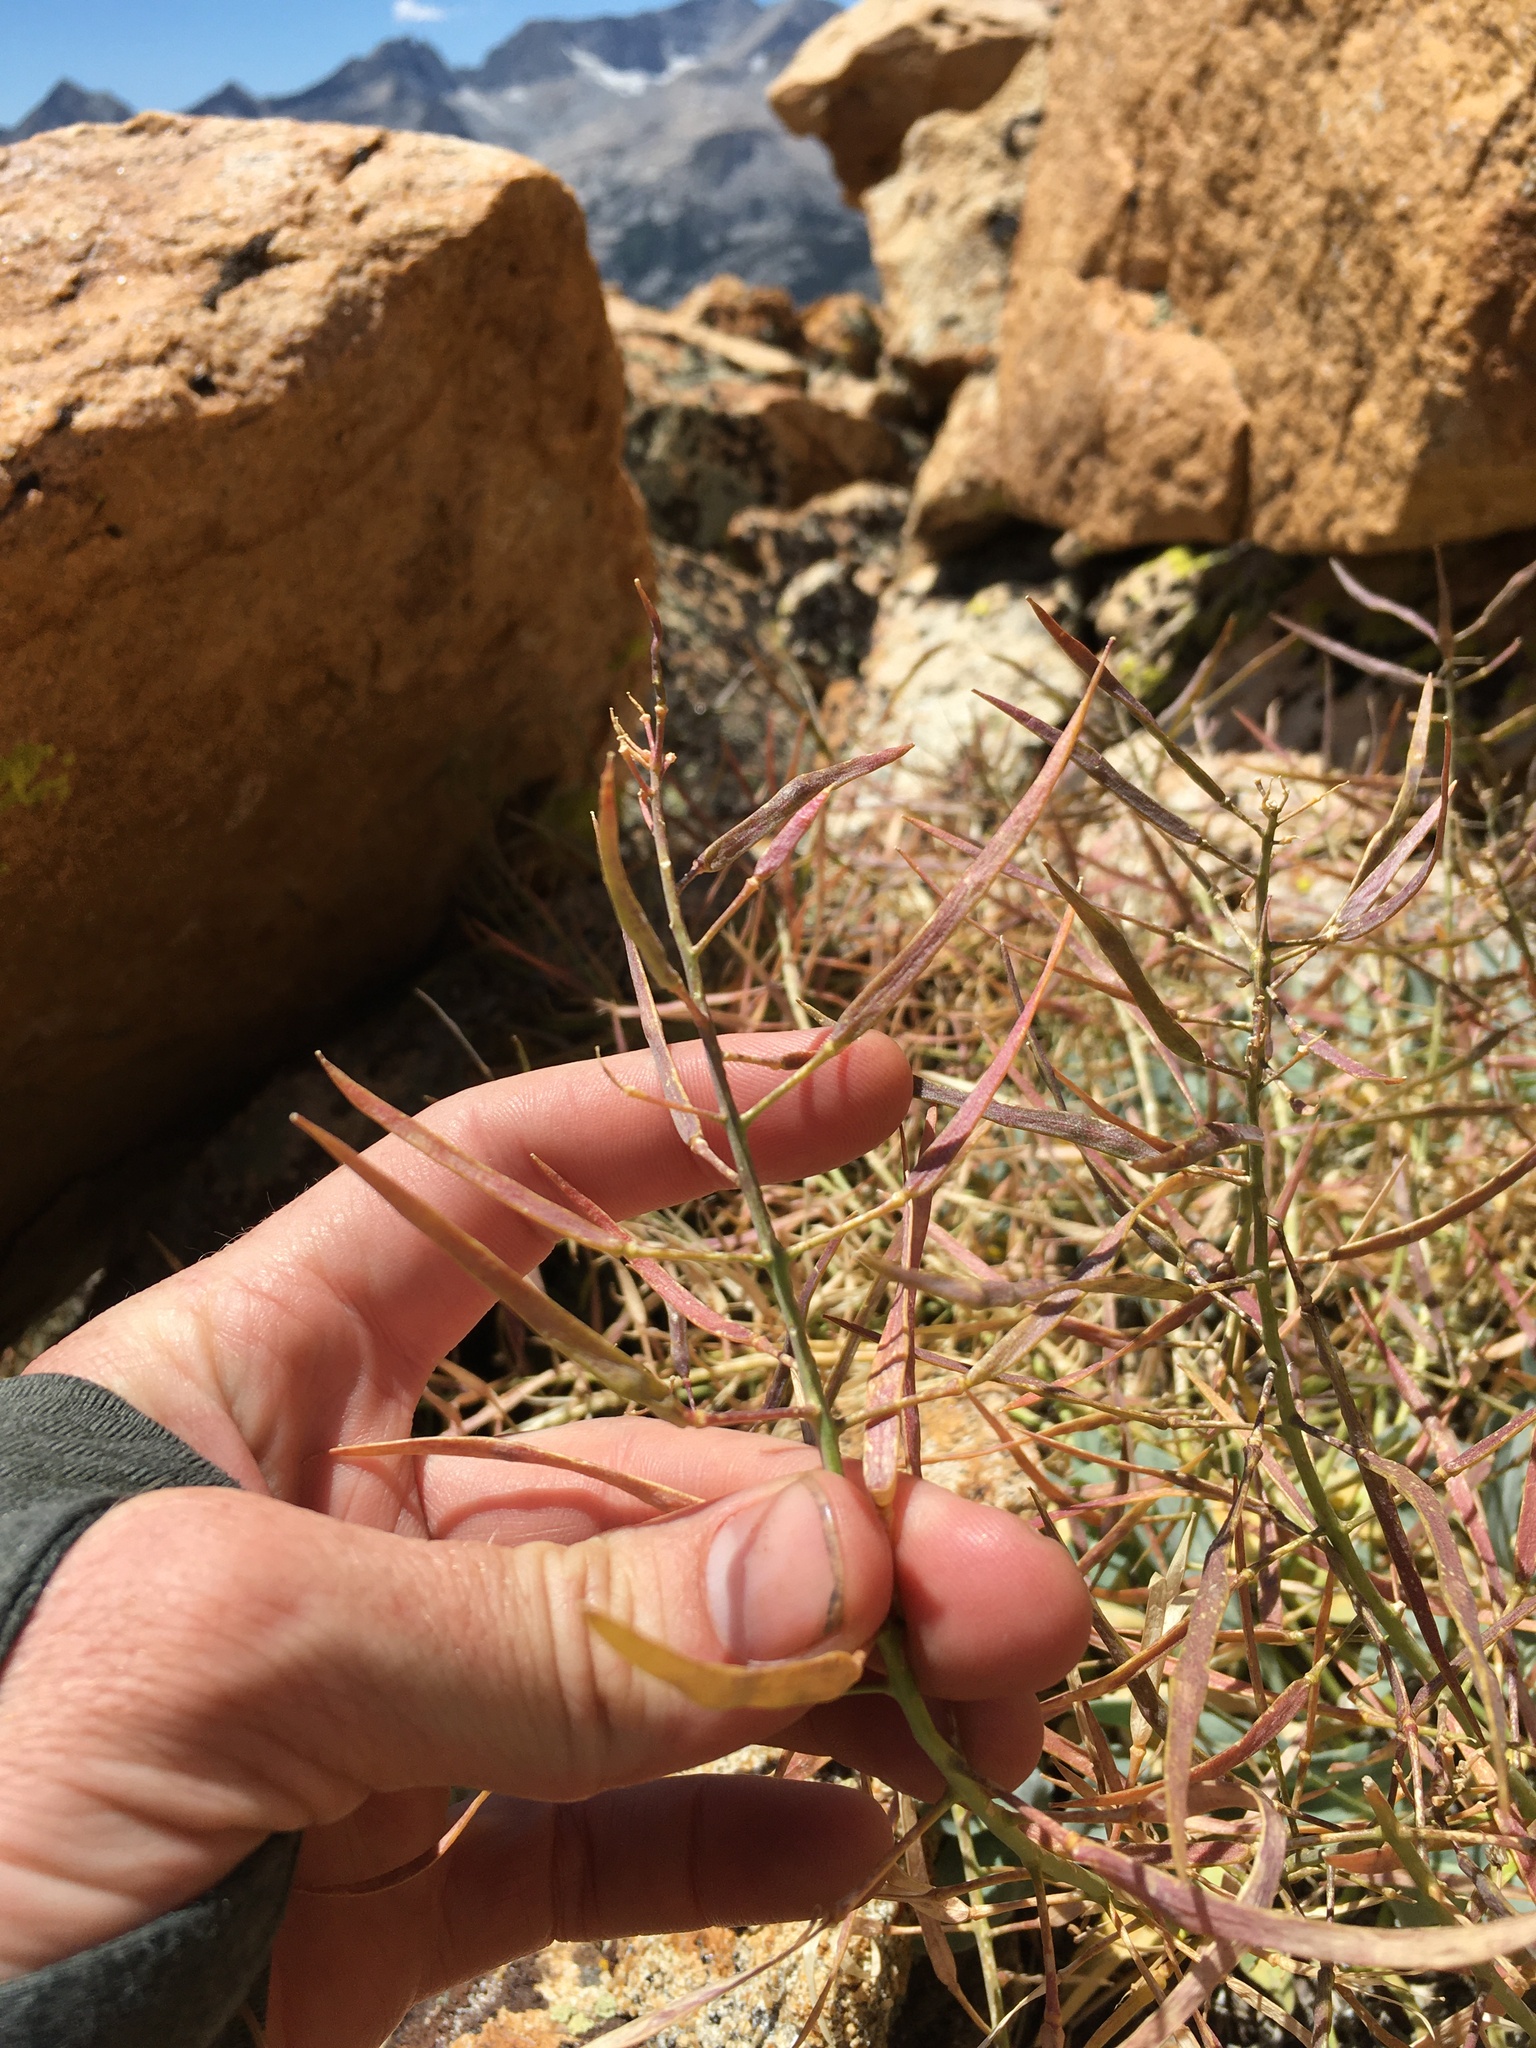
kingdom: Plantae
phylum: Tracheophyta
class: Magnoliopsida
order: Brassicales
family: Brassicaceae
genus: Phoenicaulis
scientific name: Phoenicaulis cheiranthoides
